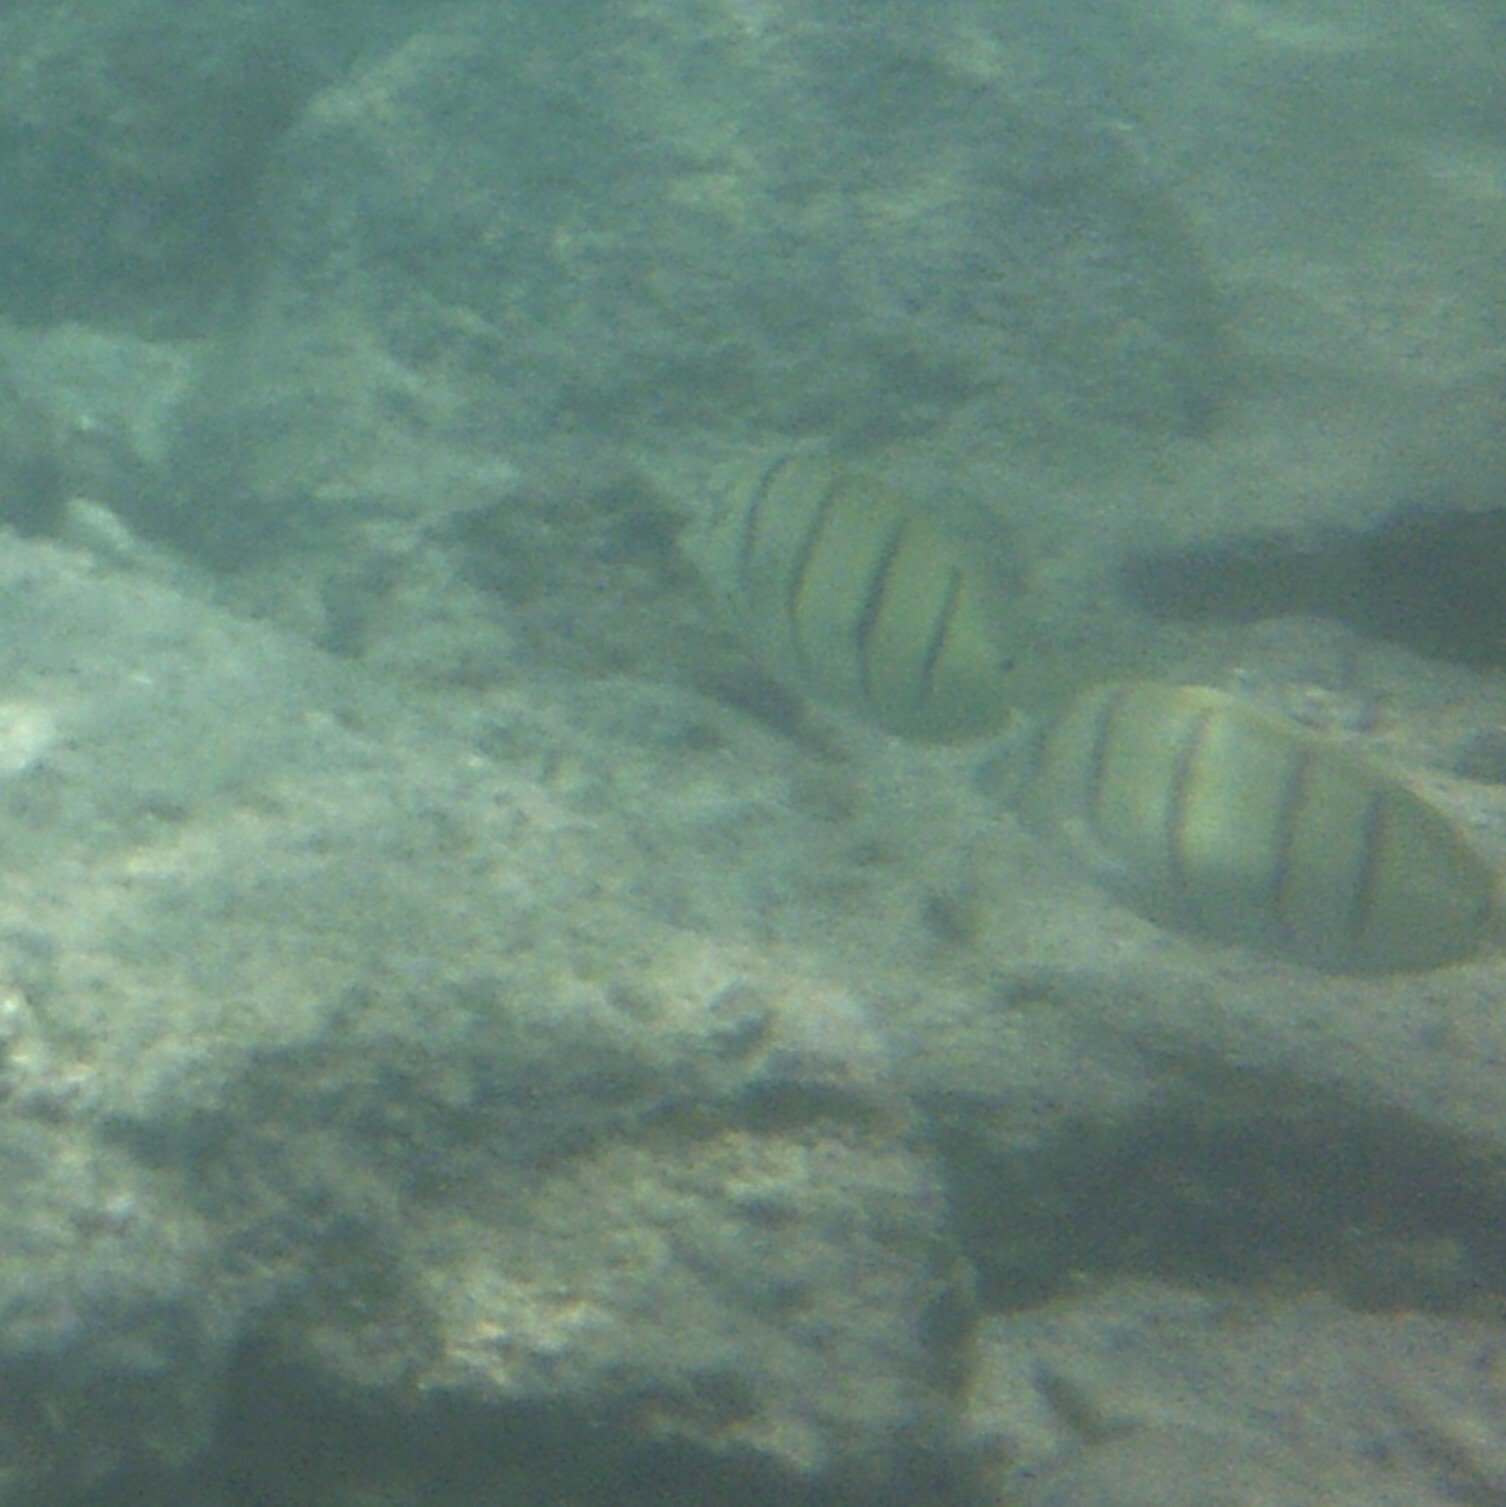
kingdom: Animalia
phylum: Chordata
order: Perciformes
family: Acanthuridae
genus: Acanthurus
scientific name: Acanthurus triostegus
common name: Convict surgeonfish
